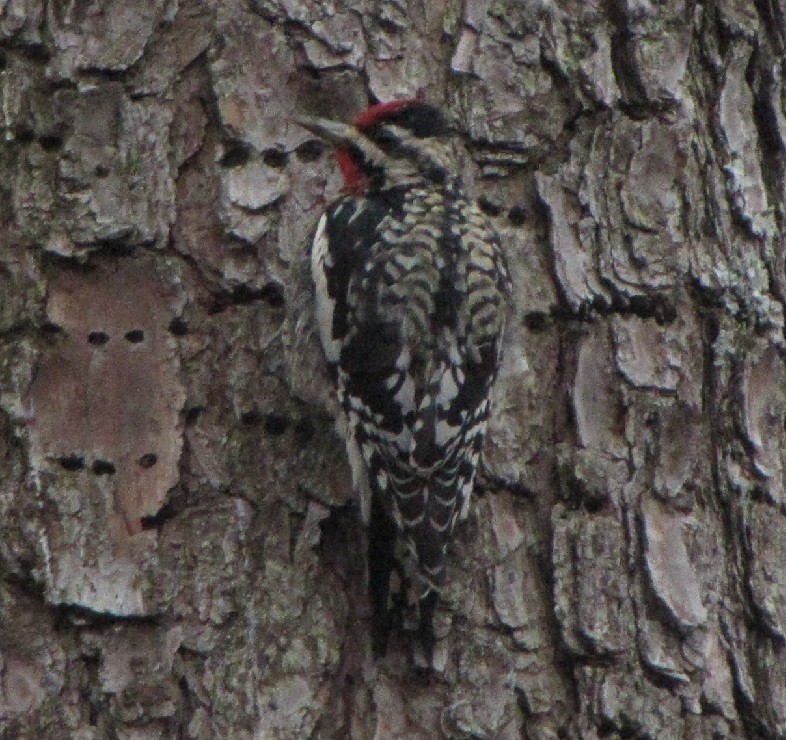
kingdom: Animalia
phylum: Chordata
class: Aves
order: Piciformes
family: Picidae
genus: Sphyrapicus
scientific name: Sphyrapicus varius
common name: Yellow-bellied sapsucker
